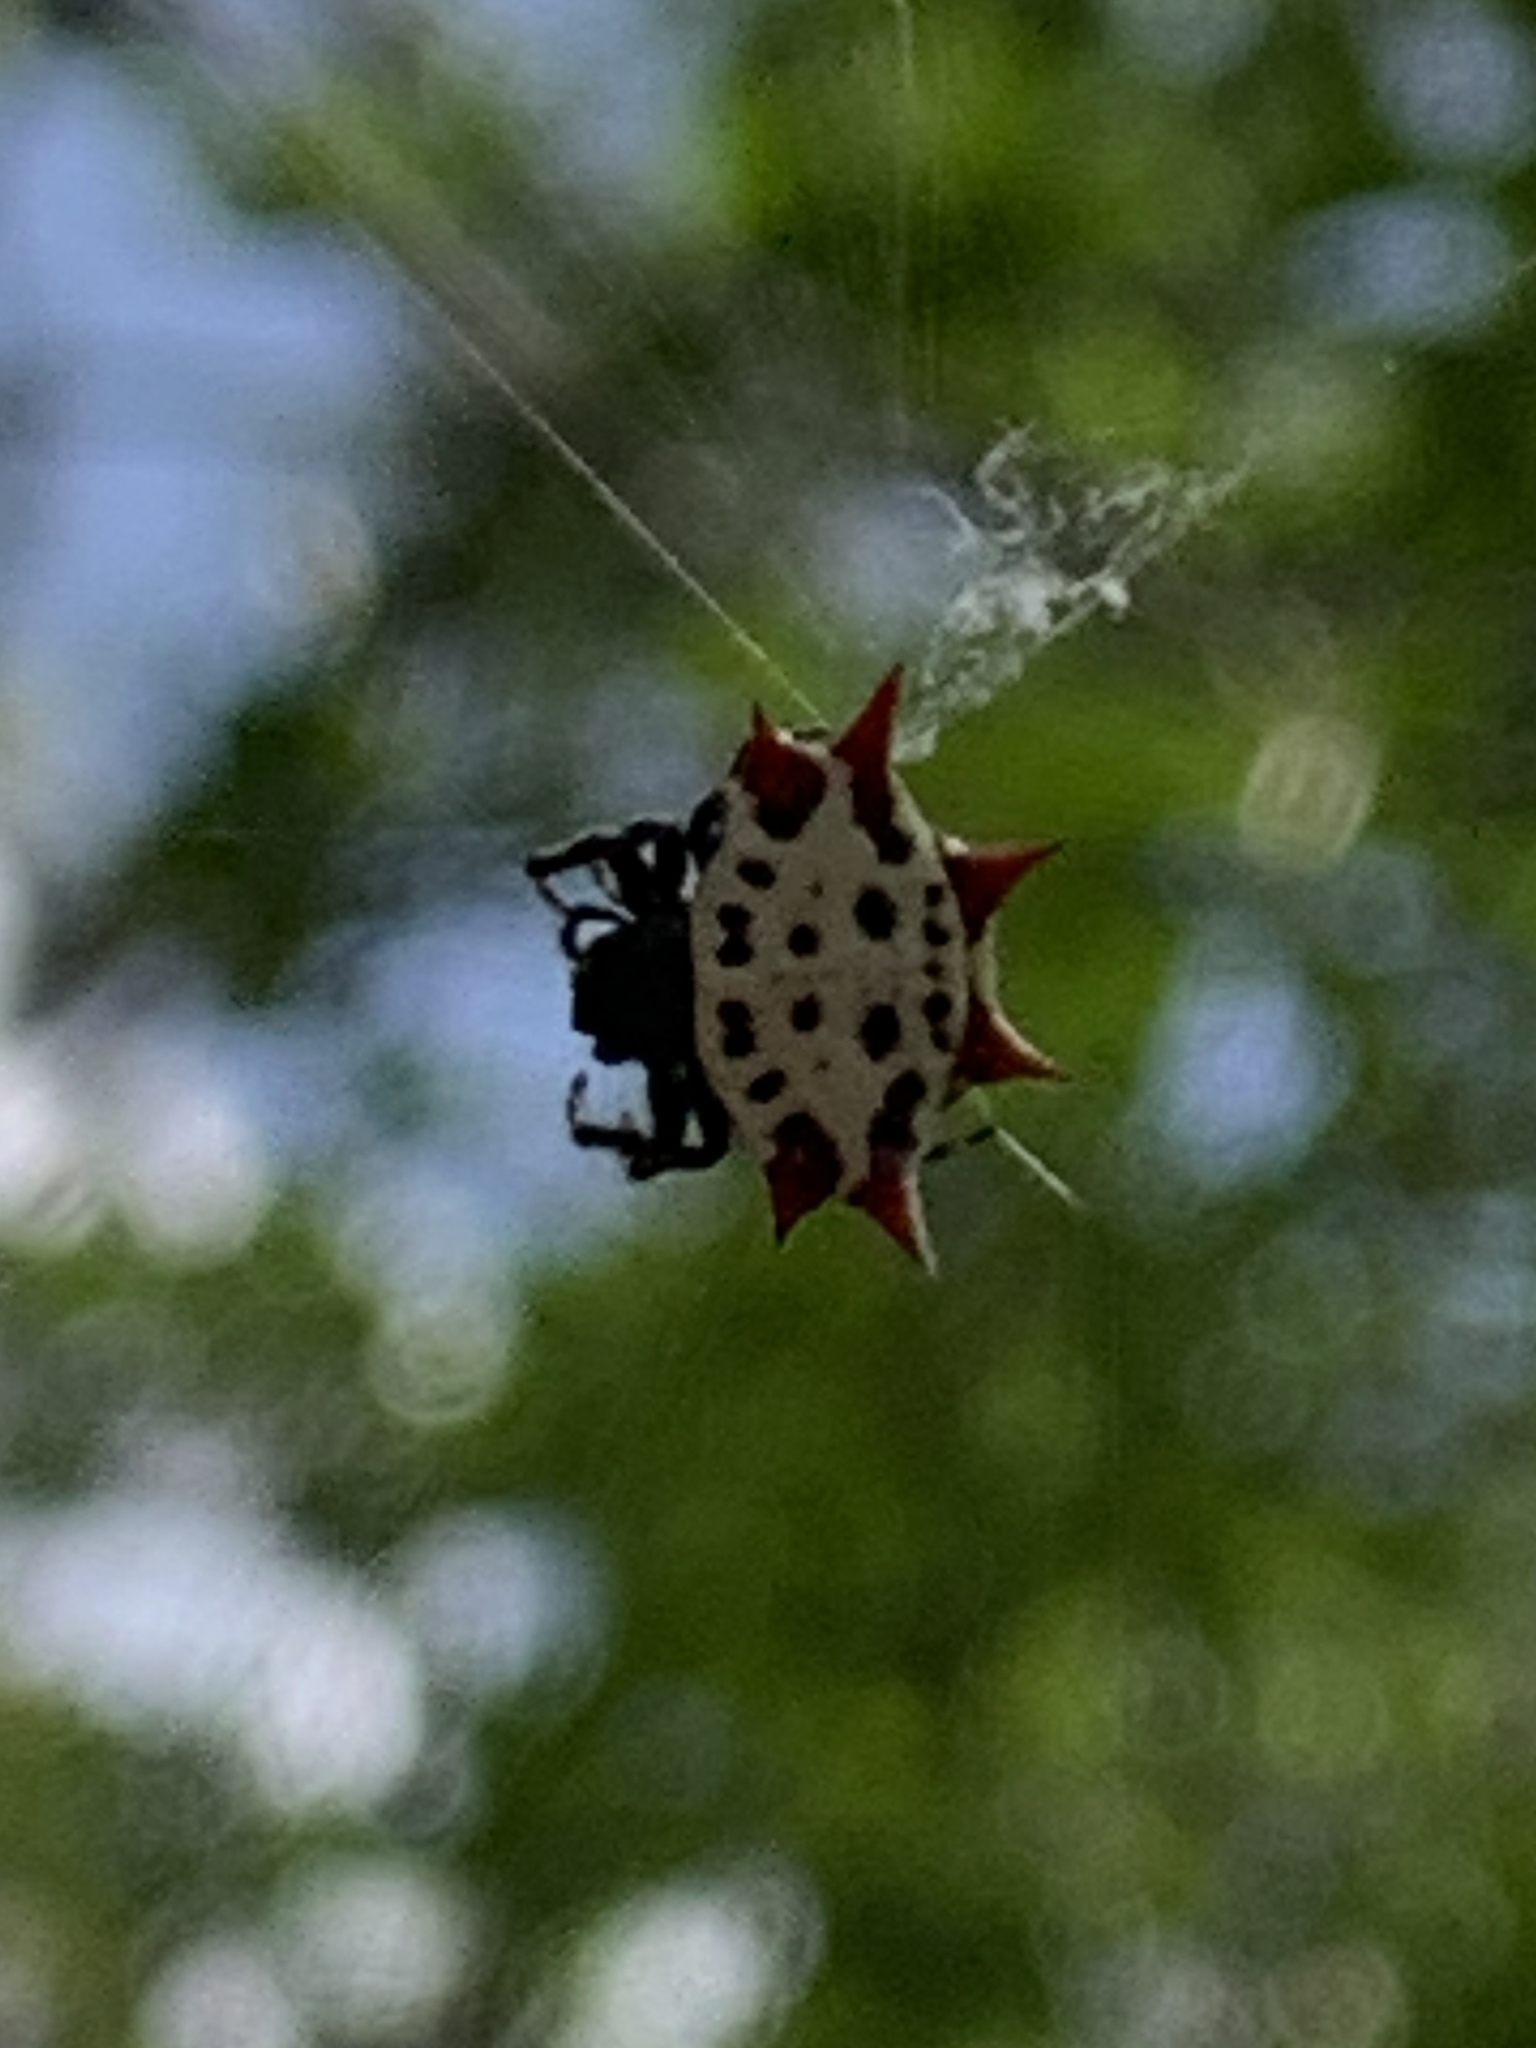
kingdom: Animalia
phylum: Arthropoda
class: Arachnida
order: Araneae
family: Araneidae
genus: Gasteracantha
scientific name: Gasteracantha cancriformis
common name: Orb weavers
